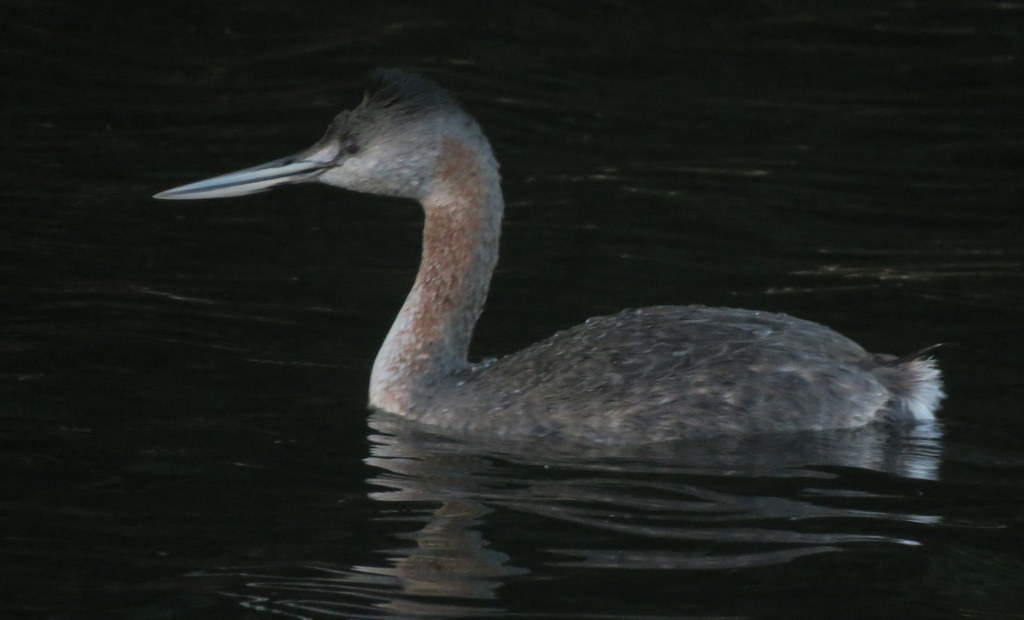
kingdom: Animalia
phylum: Chordata
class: Aves
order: Podicipediformes
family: Podicipedidae
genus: Podiceps
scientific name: Podiceps major
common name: Great grebe
